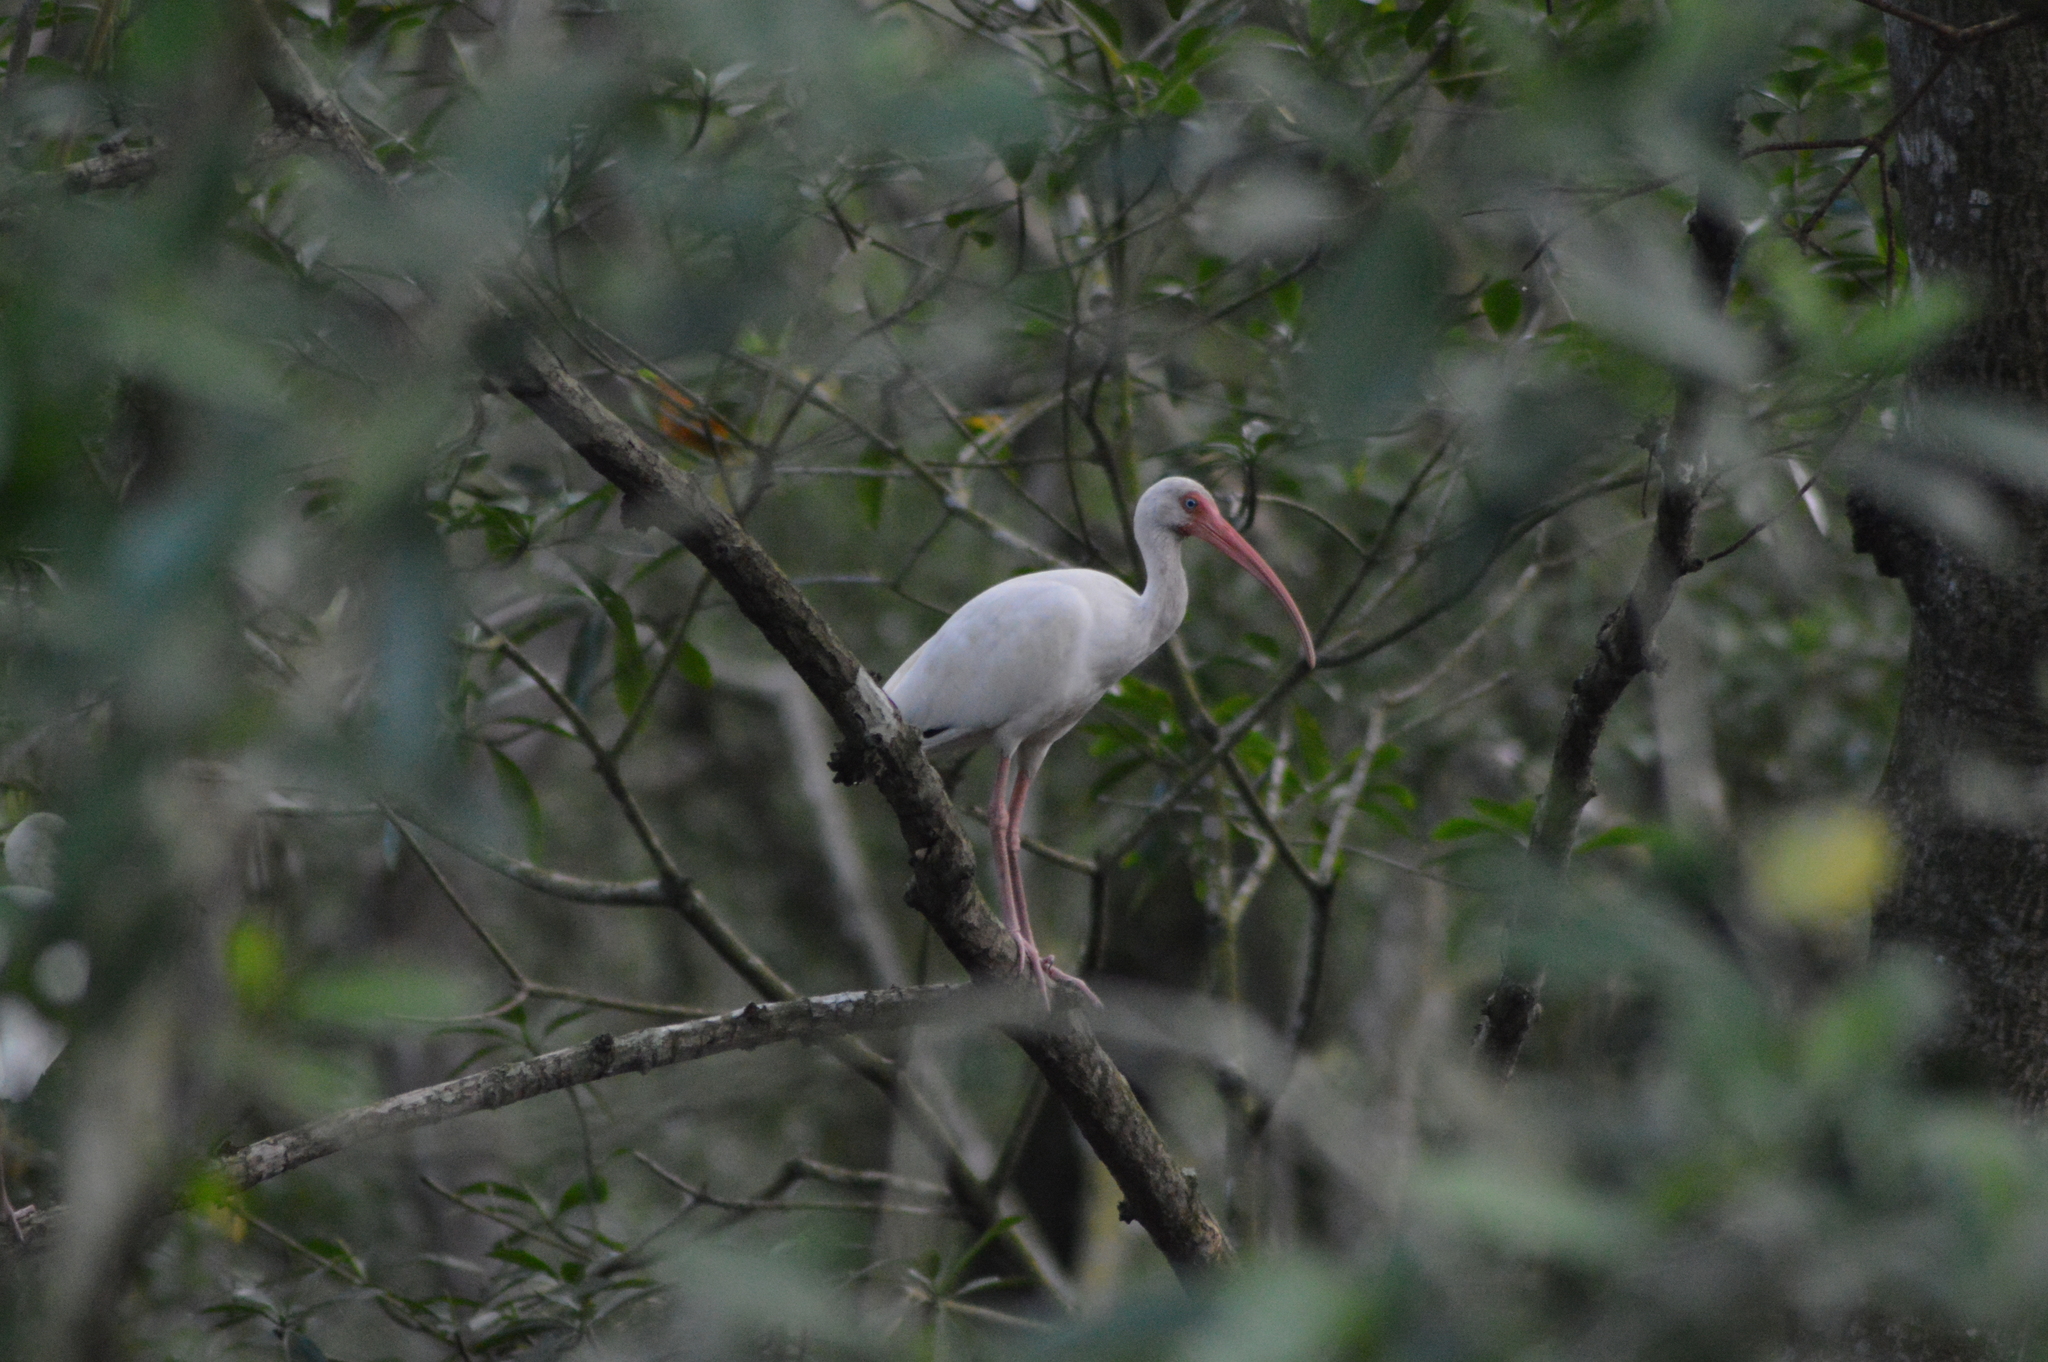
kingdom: Animalia
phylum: Chordata
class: Aves
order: Pelecaniformes
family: Threskiornithidae
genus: Eudocimus
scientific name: Eudocimus albus
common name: White ibis
